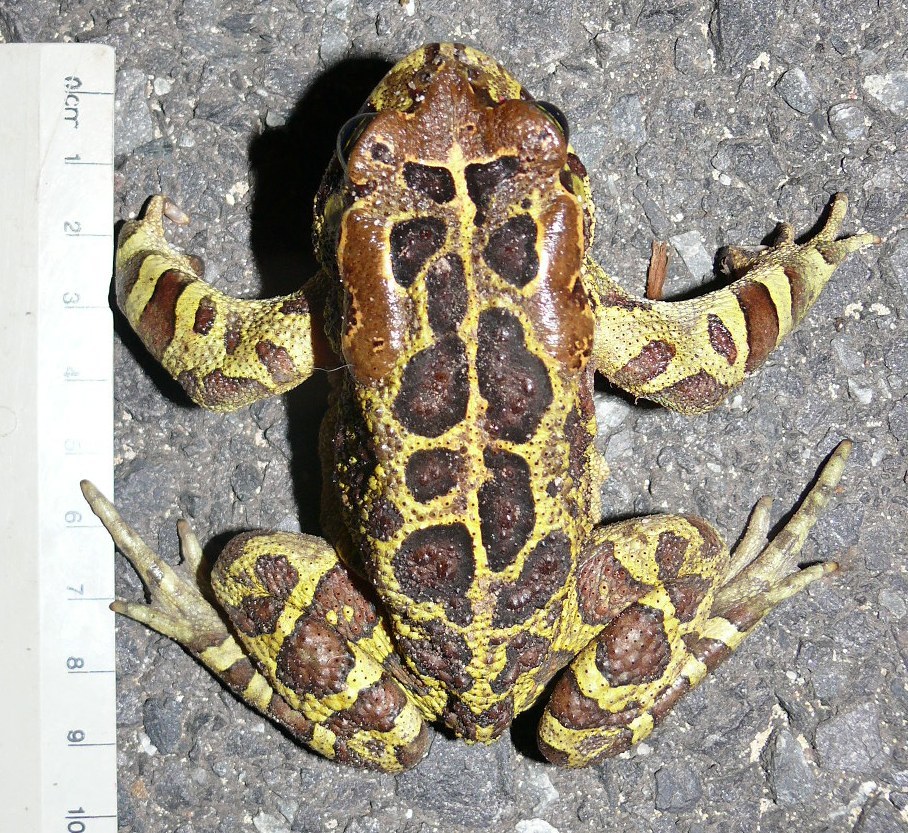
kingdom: Animalia
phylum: Chordata
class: Amphibia
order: Anura
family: Bufonidae
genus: Sclerophrys
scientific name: Sclerophrys pantherina
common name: Panther toad
